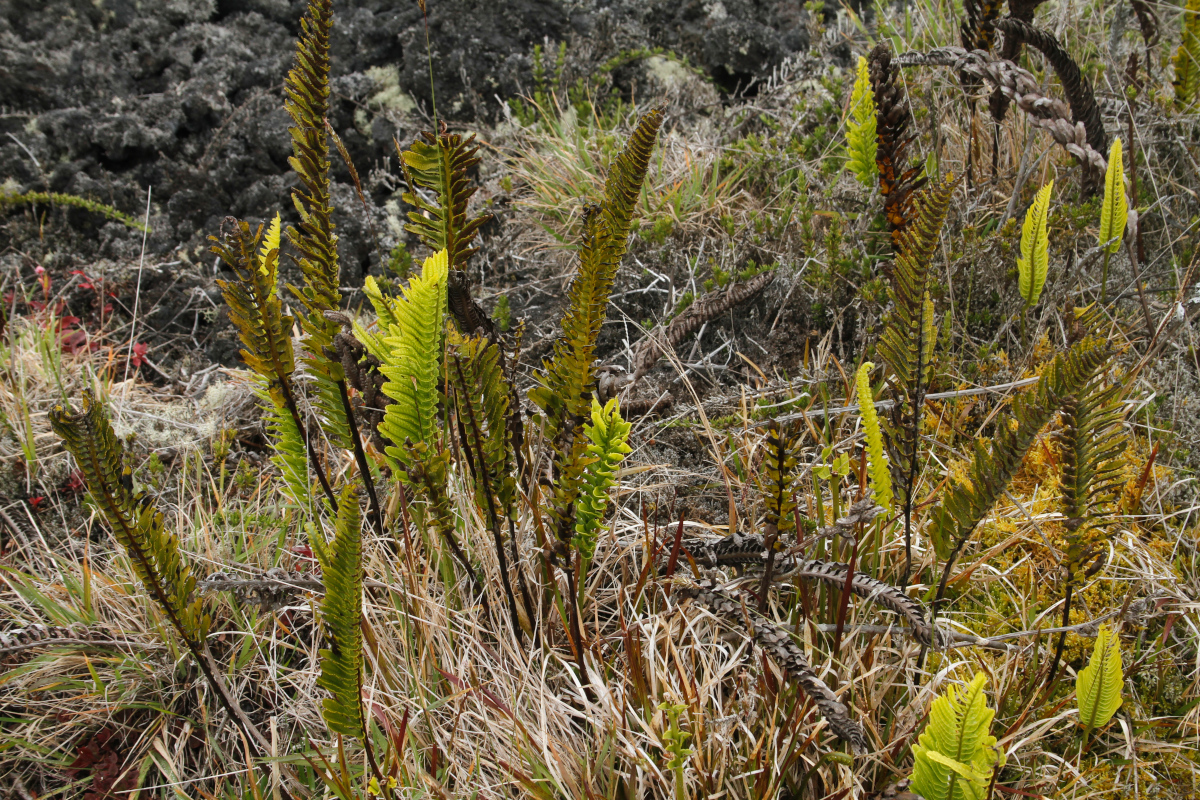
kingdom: Plantae
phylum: Tracheophyta
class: Polypodiopsida
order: Polypodiales
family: Polypodiaceae
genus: Polypodium
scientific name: Polypodium pellucidum
